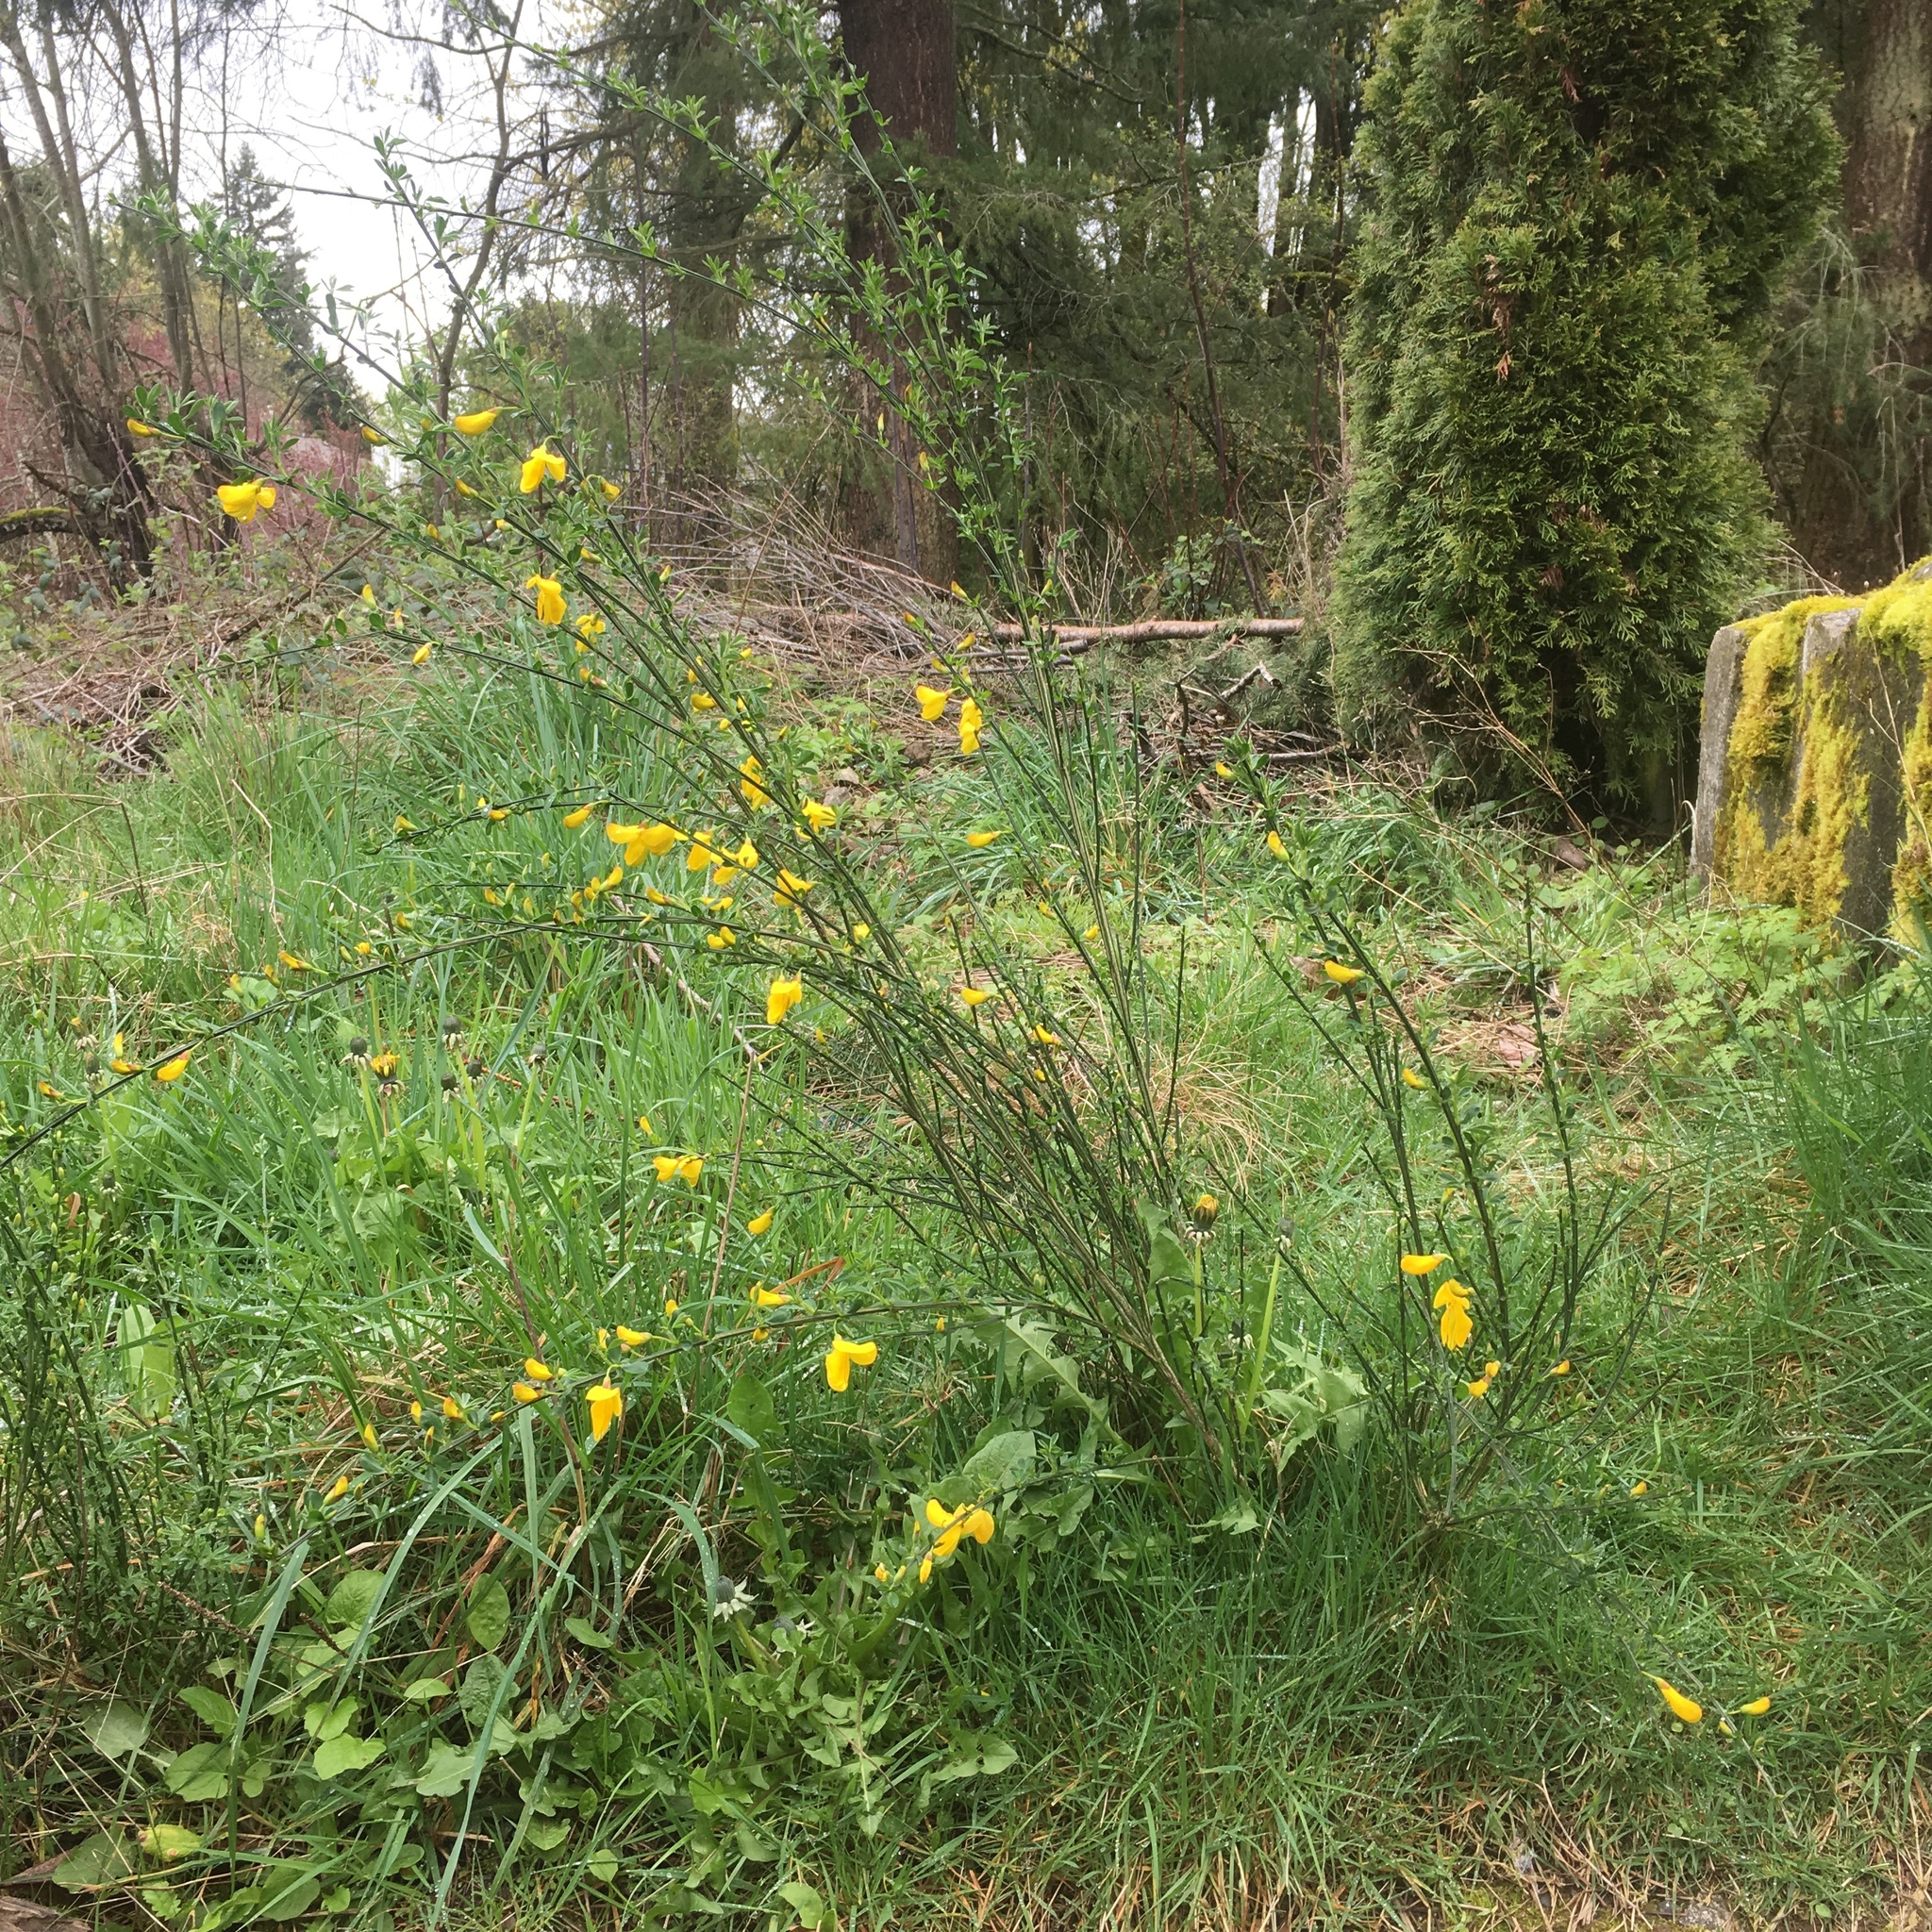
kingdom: Plantae
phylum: Tracheophyta
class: Magnoliopsida
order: Fabales
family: Fabaceae
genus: Cytisus
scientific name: Cytisus scoparius
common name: Scotch broom
